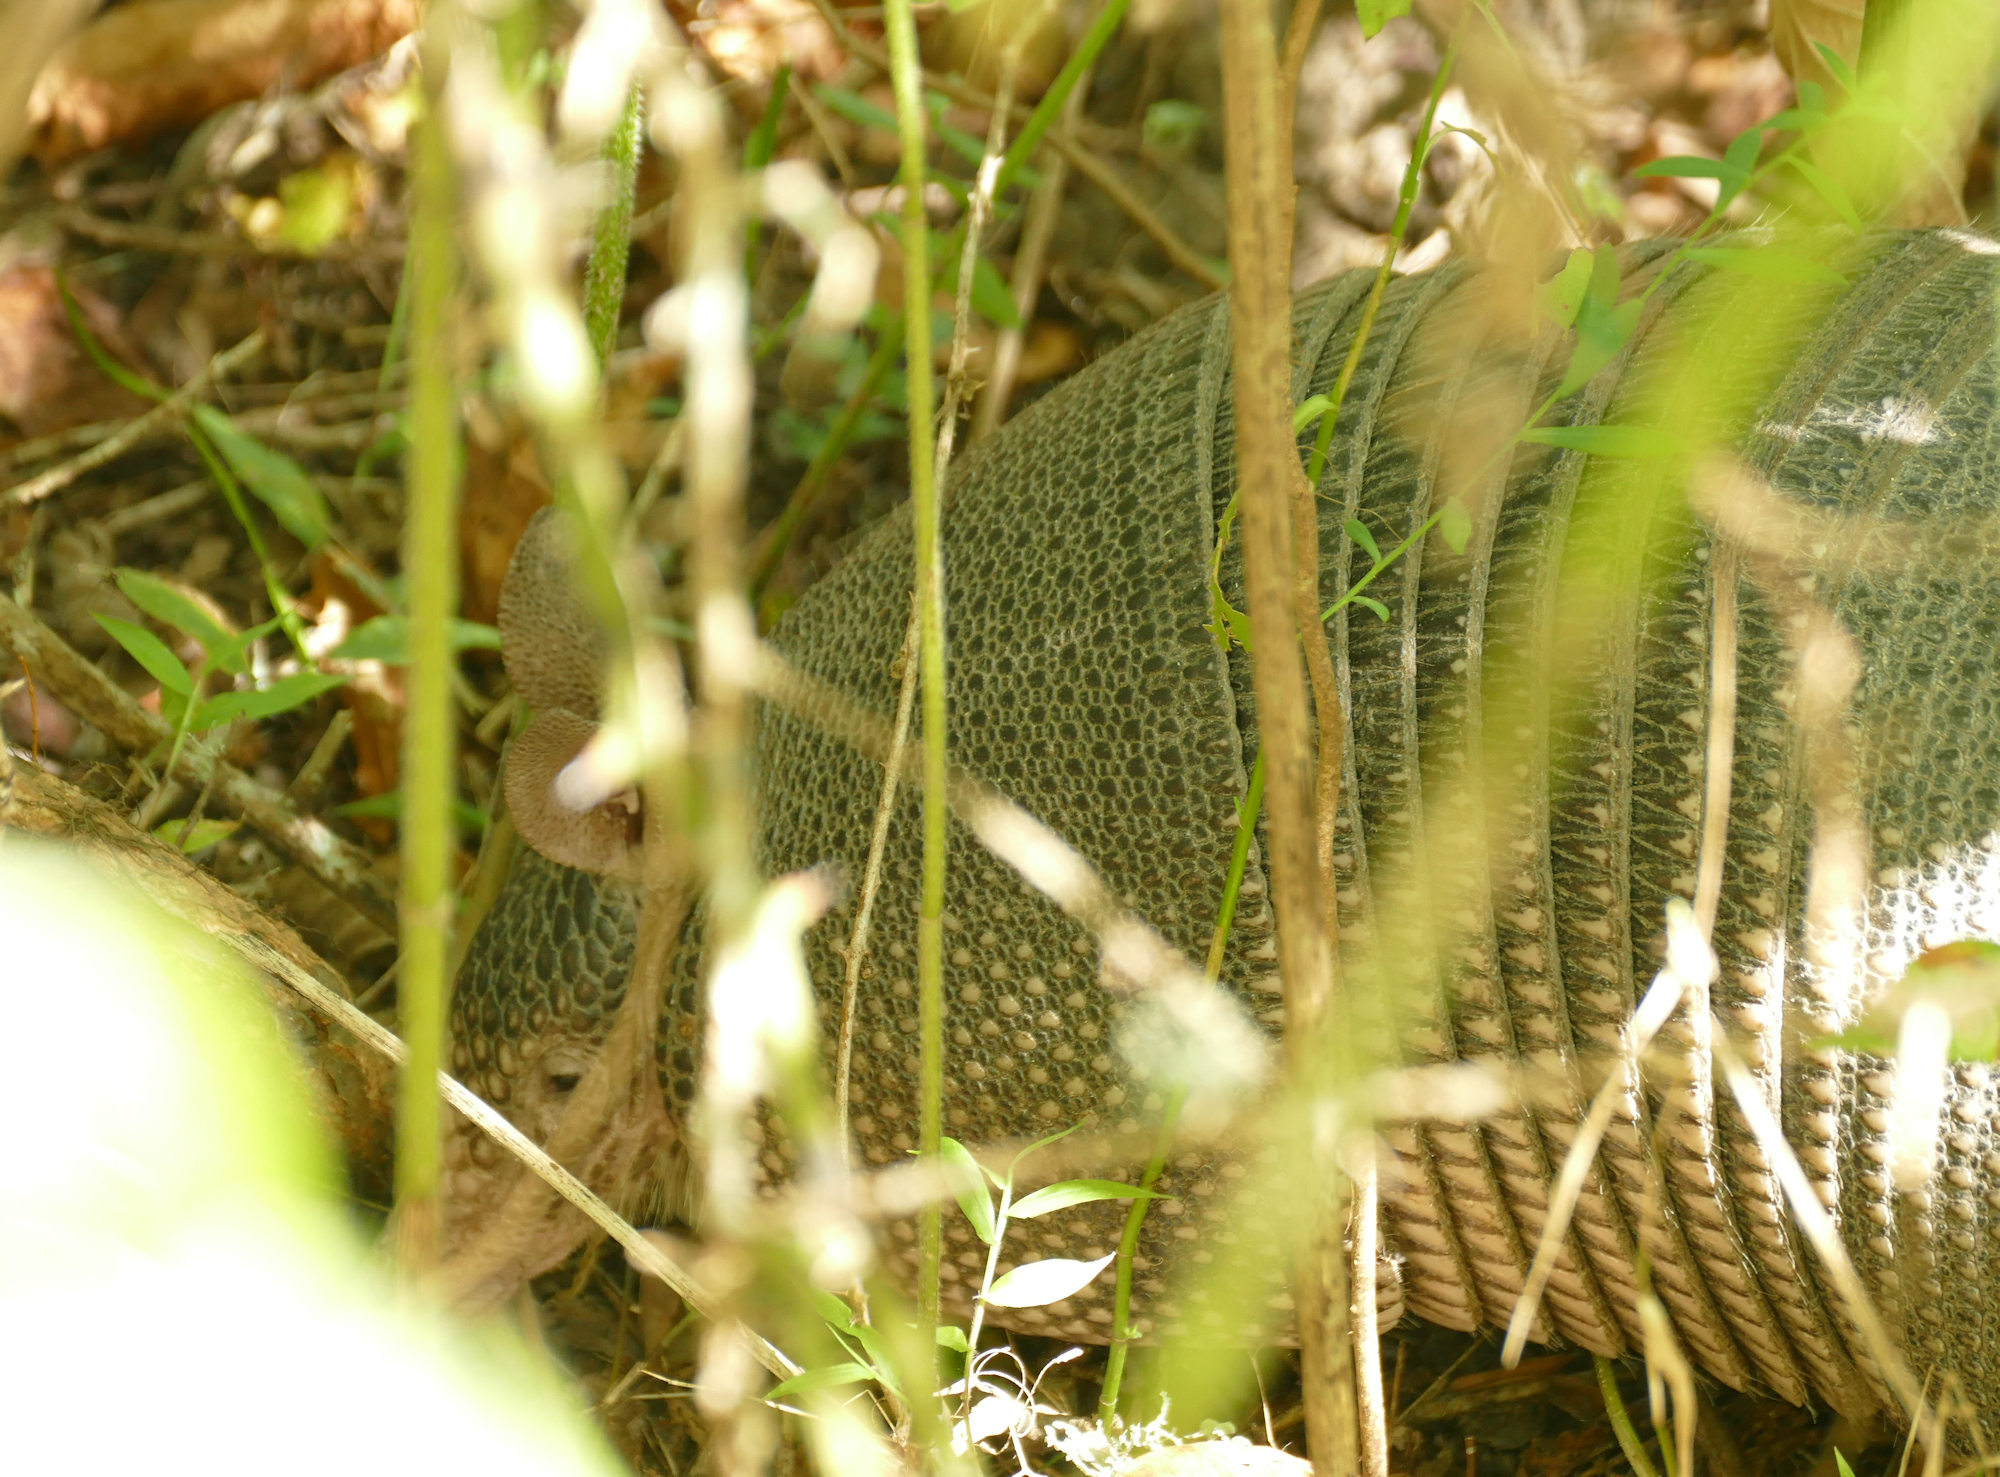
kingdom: Animalia
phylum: Chordata
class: Mammalia
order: Cingulata
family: Dasypodidae
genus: Dasypus
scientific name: Dasypus novemcinctus
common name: Nine-banded armadillo
